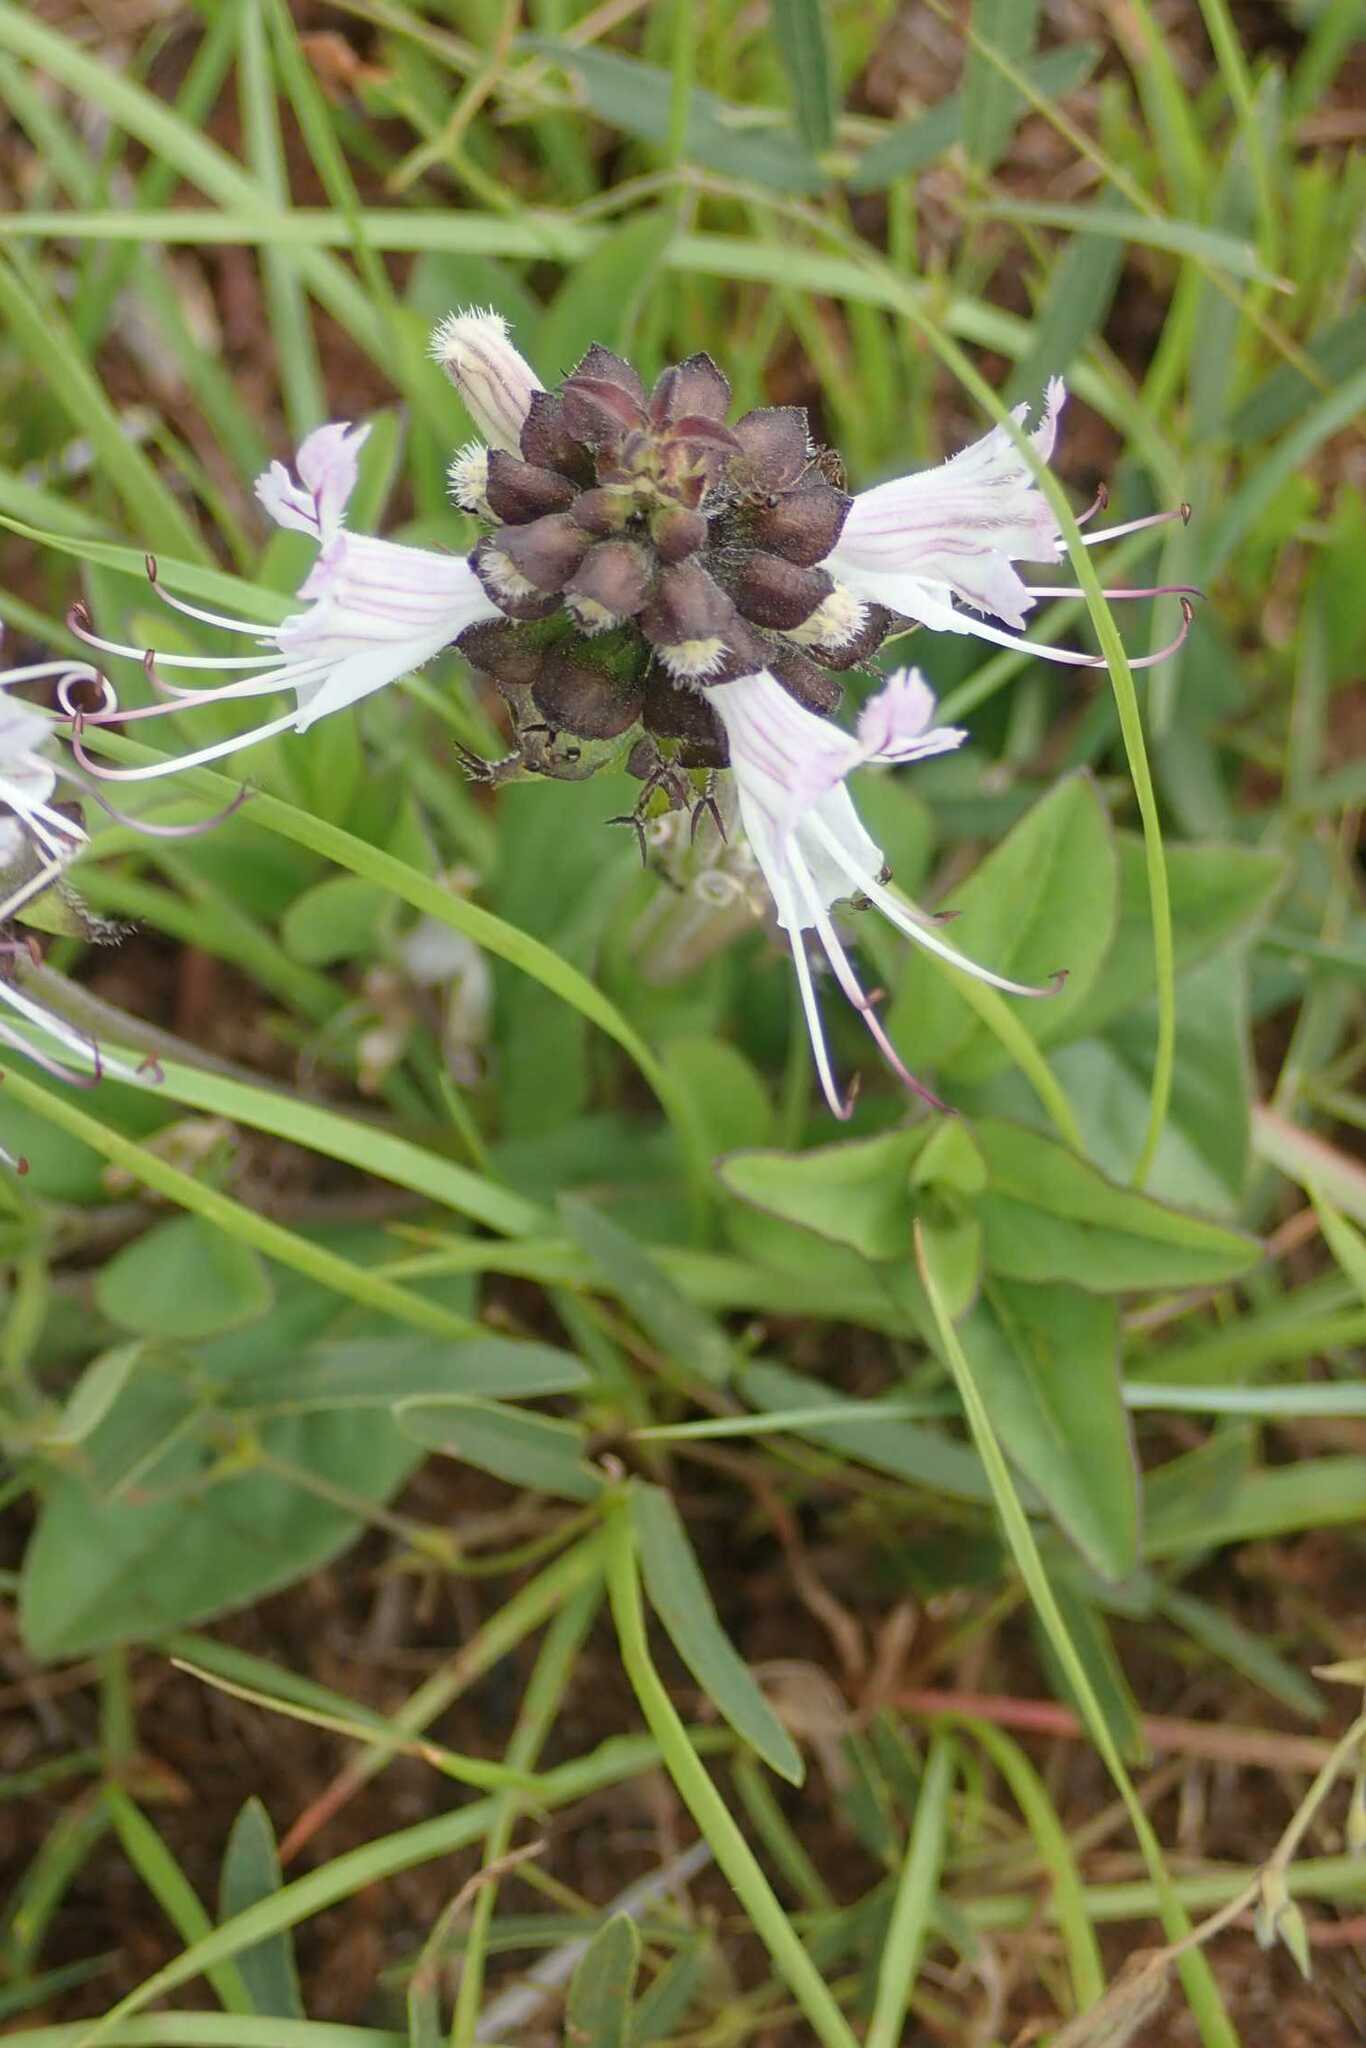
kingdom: Plantae
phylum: Tracheophyta
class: Magnoliopsida
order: Lamiales
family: Lamiaceae
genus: Ocimum
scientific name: Ocimum obovatum
